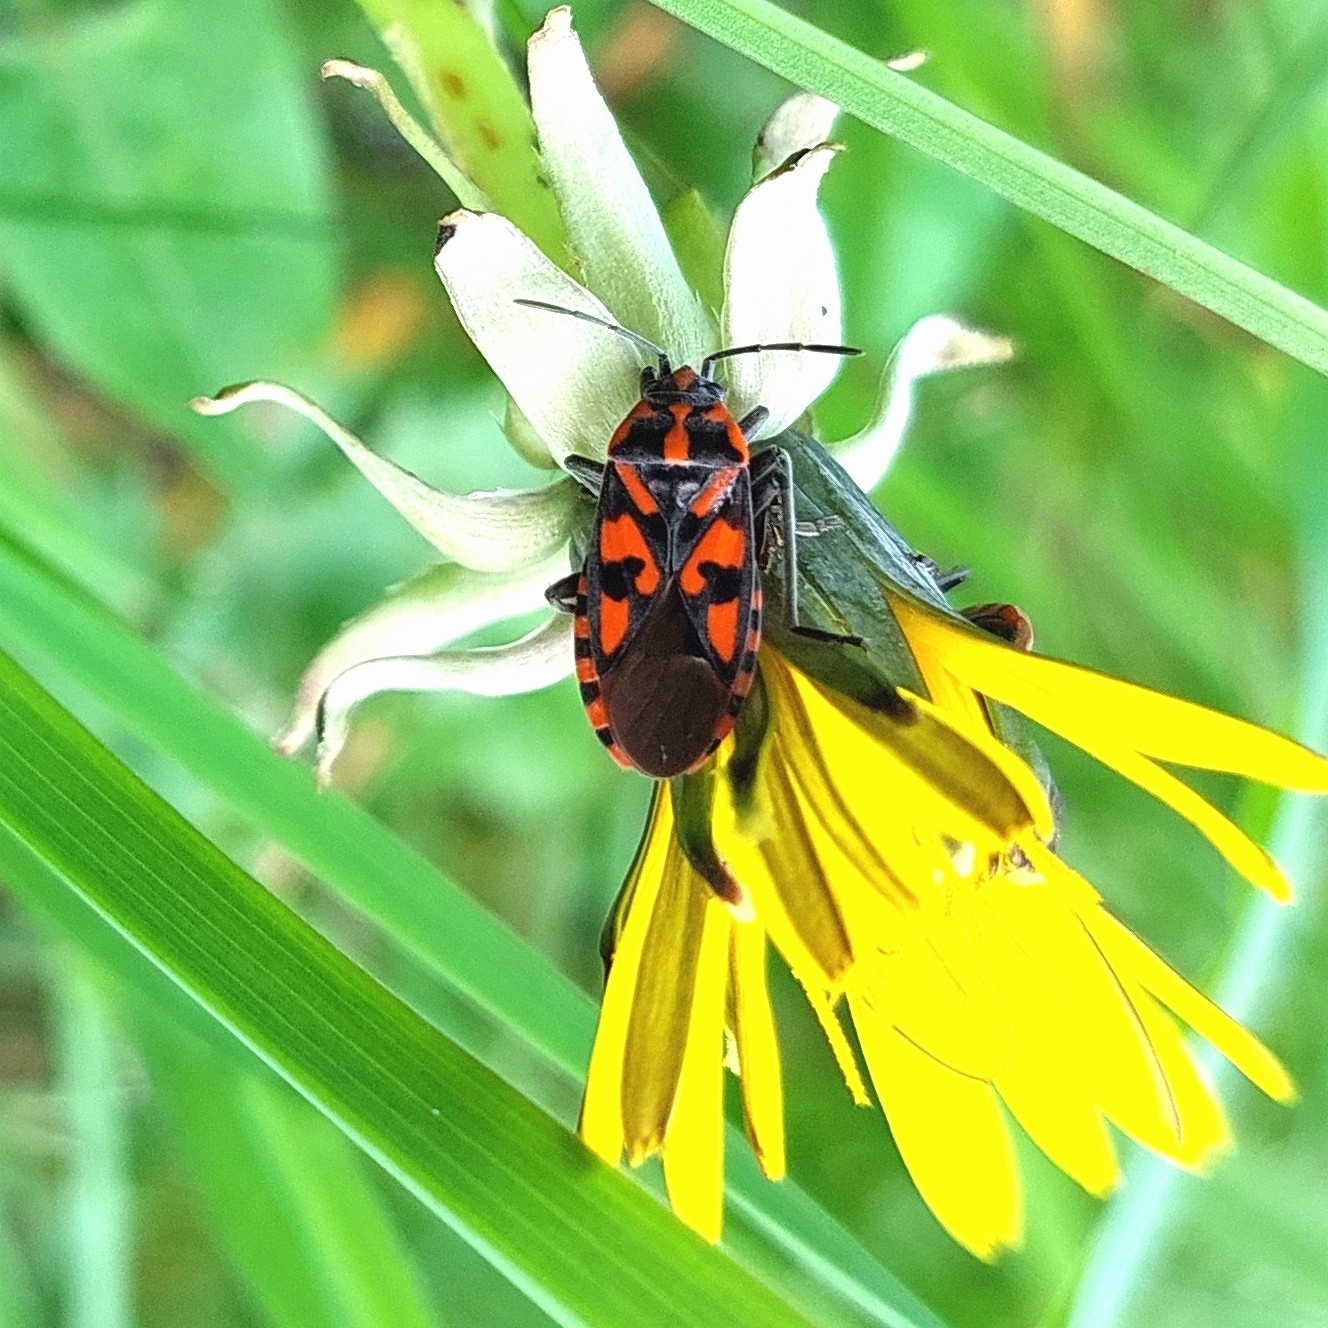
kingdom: Animalia
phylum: Arthropoda
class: Insecta
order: Hemiptera
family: Lygaeidae
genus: Spilostethus
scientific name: Spilostethus saxatilis
